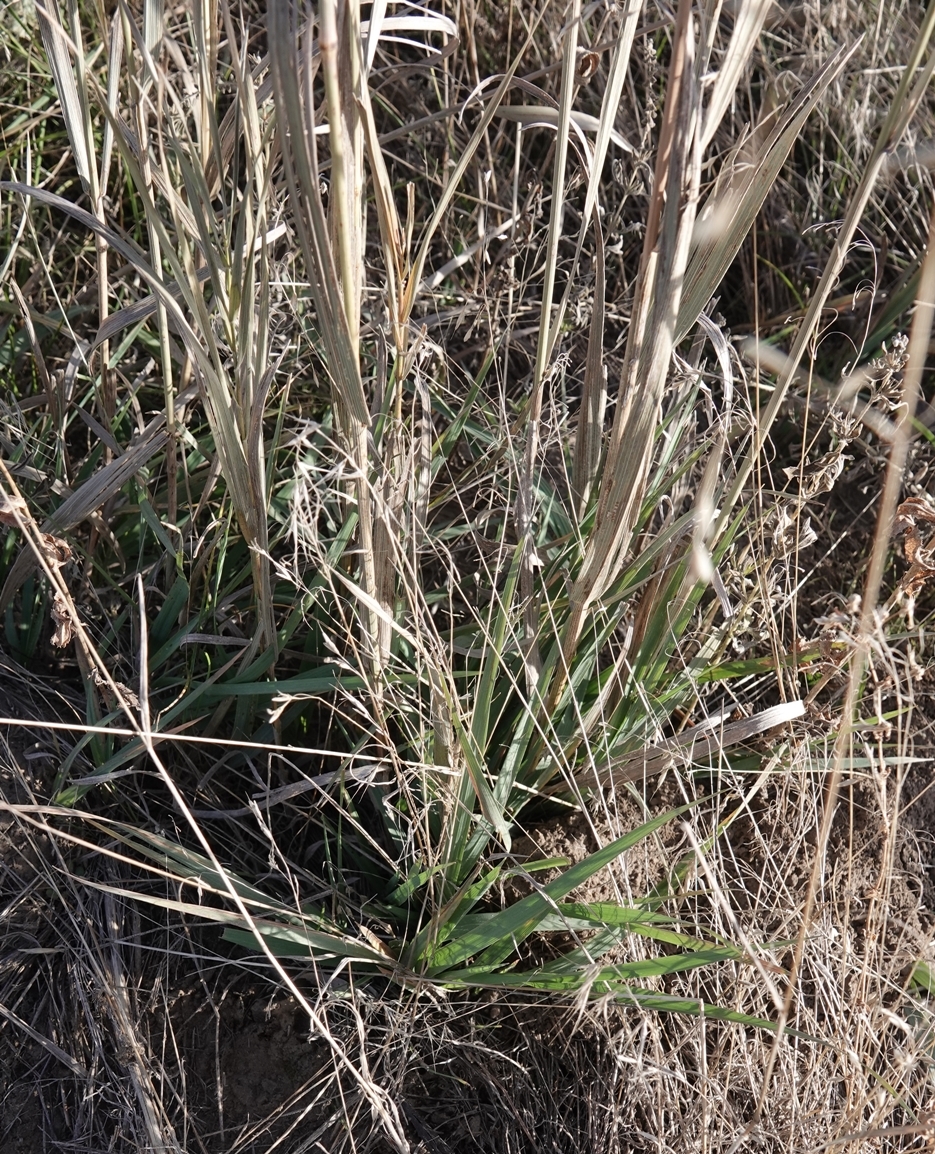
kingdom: Plantae
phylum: Tracheophyta
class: Liliopsida
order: Poales
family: Poaceae
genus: Bromus
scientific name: Bromus inermis
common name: Smooth brome
